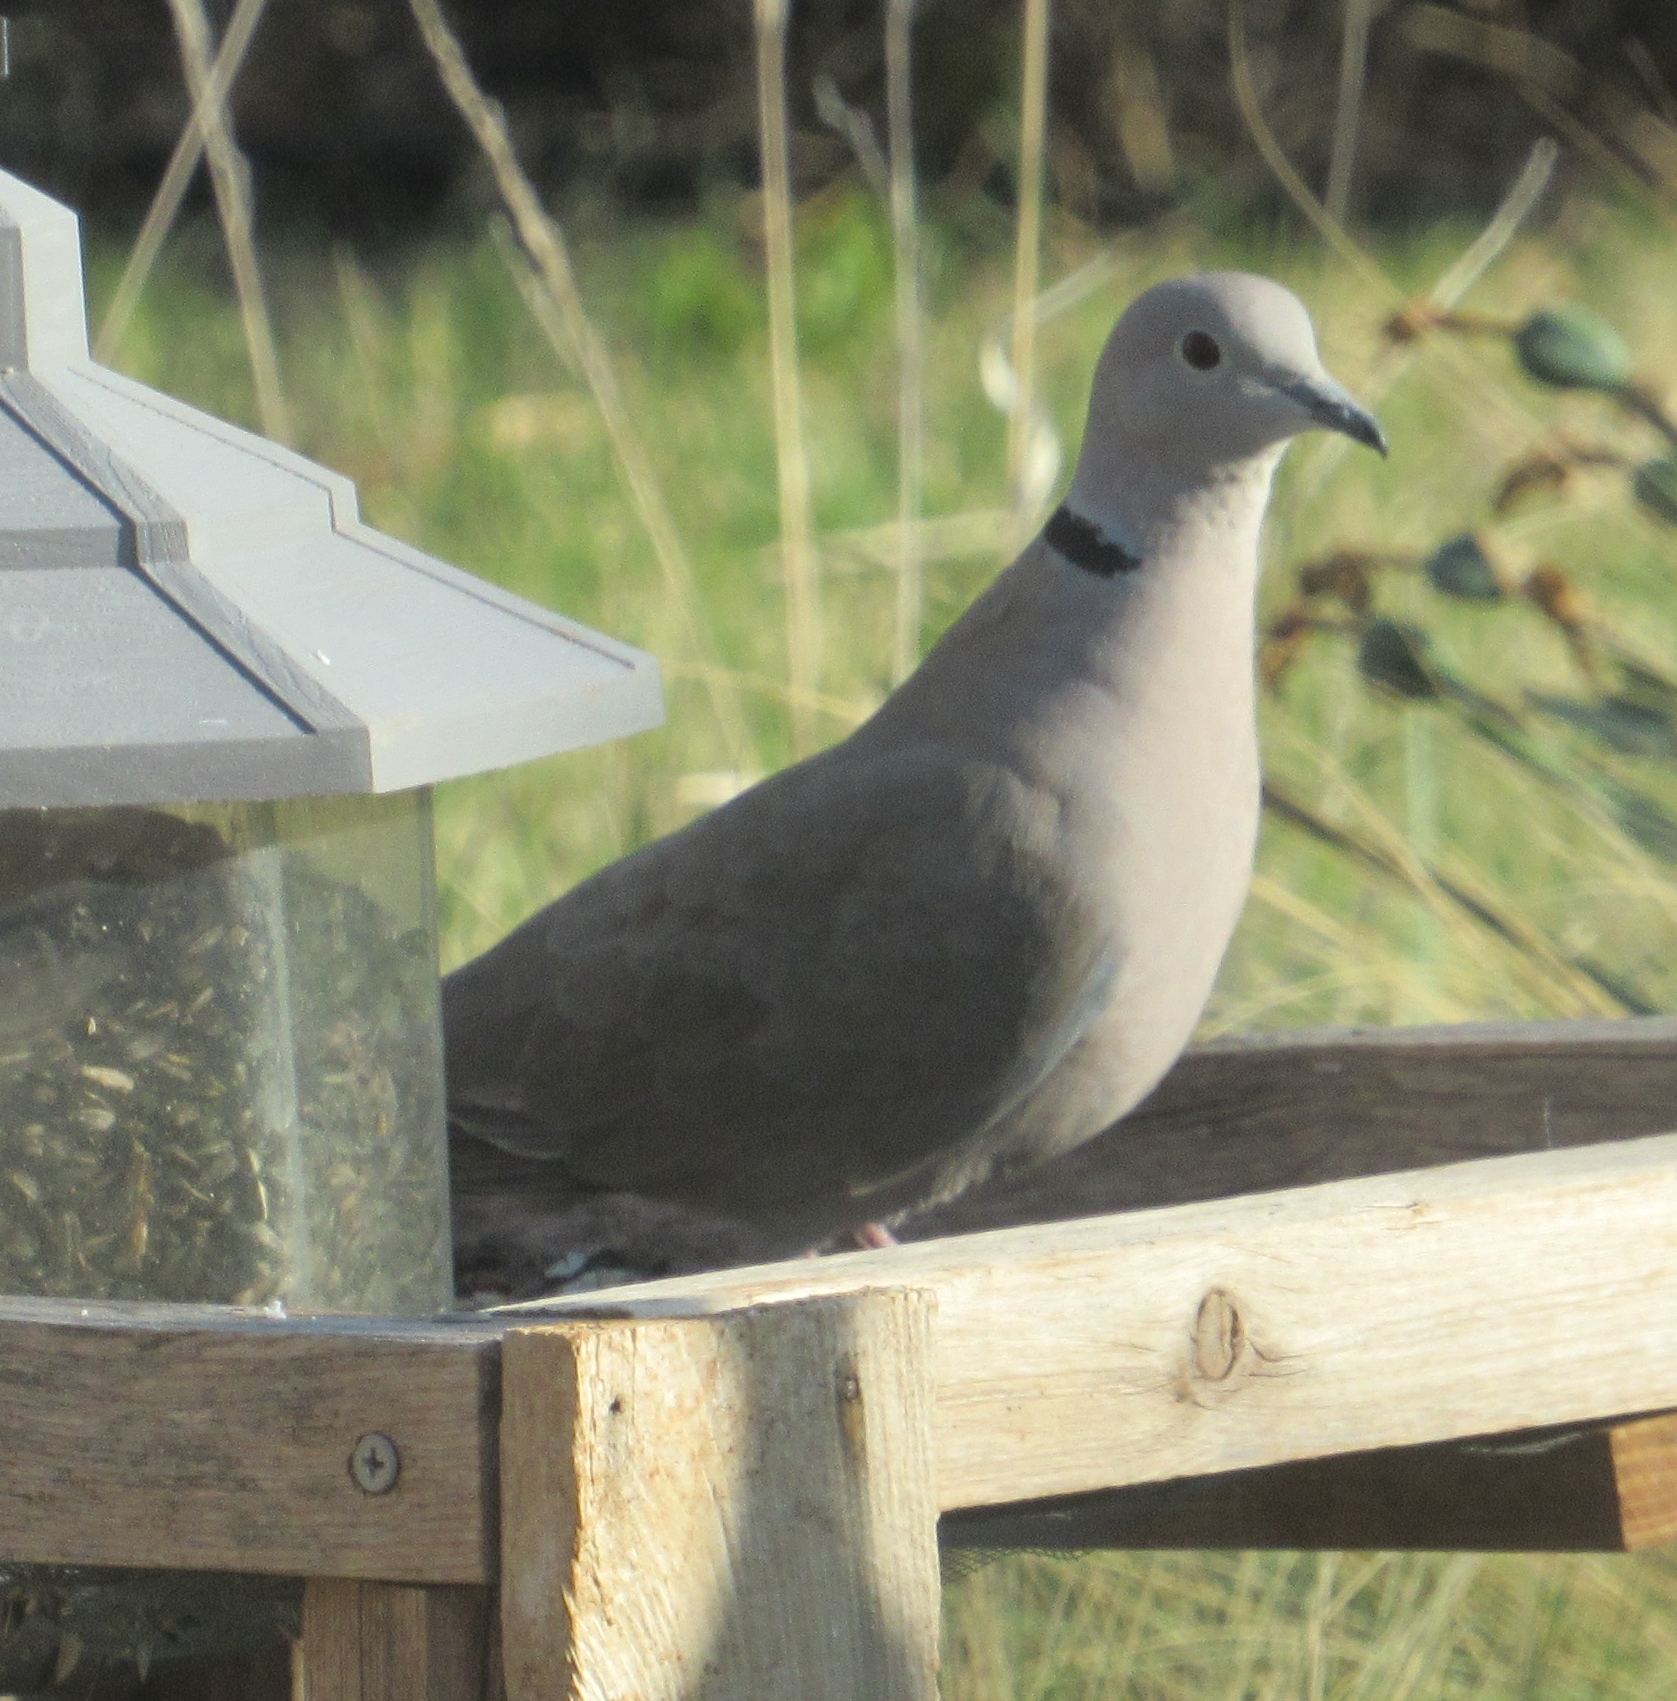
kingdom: Animalia
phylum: Chordata
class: Aves
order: Columbiformes
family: Columbidae
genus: Streptopelia
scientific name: Streptopelia decaocto
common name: Eurasian collared dove
